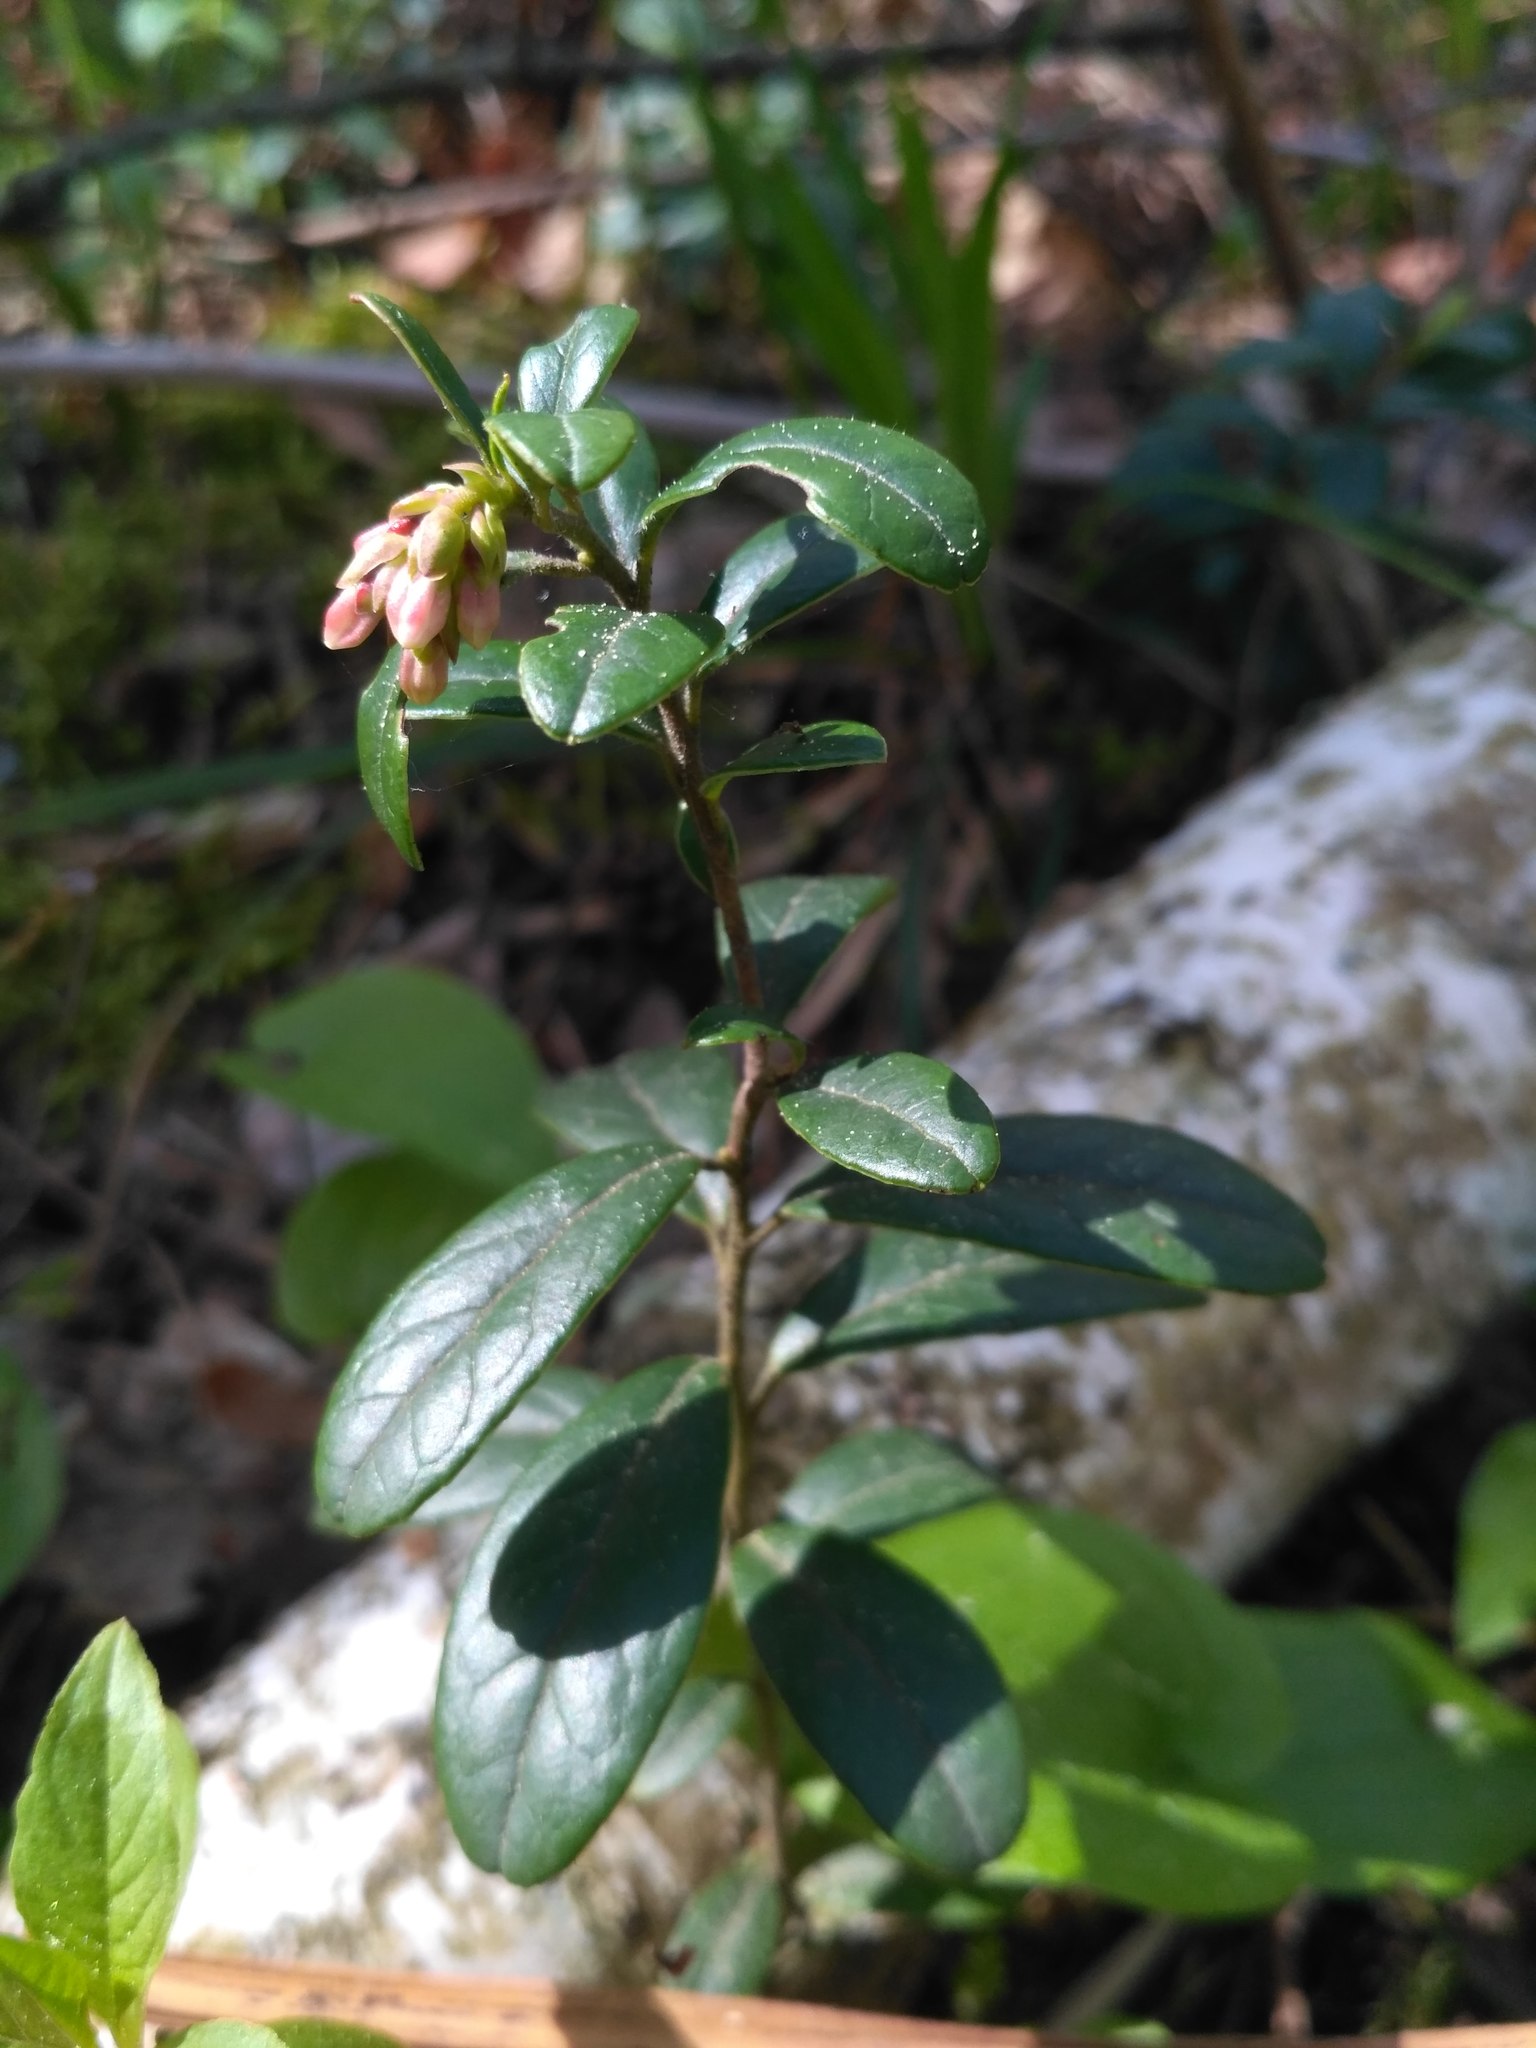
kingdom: Plantae
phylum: Tracheophyta
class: Magnoliopsida
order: Ericales
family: Ericaceae
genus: Vaccinium
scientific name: Vaccinium vitis-idaea
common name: Cowberry
